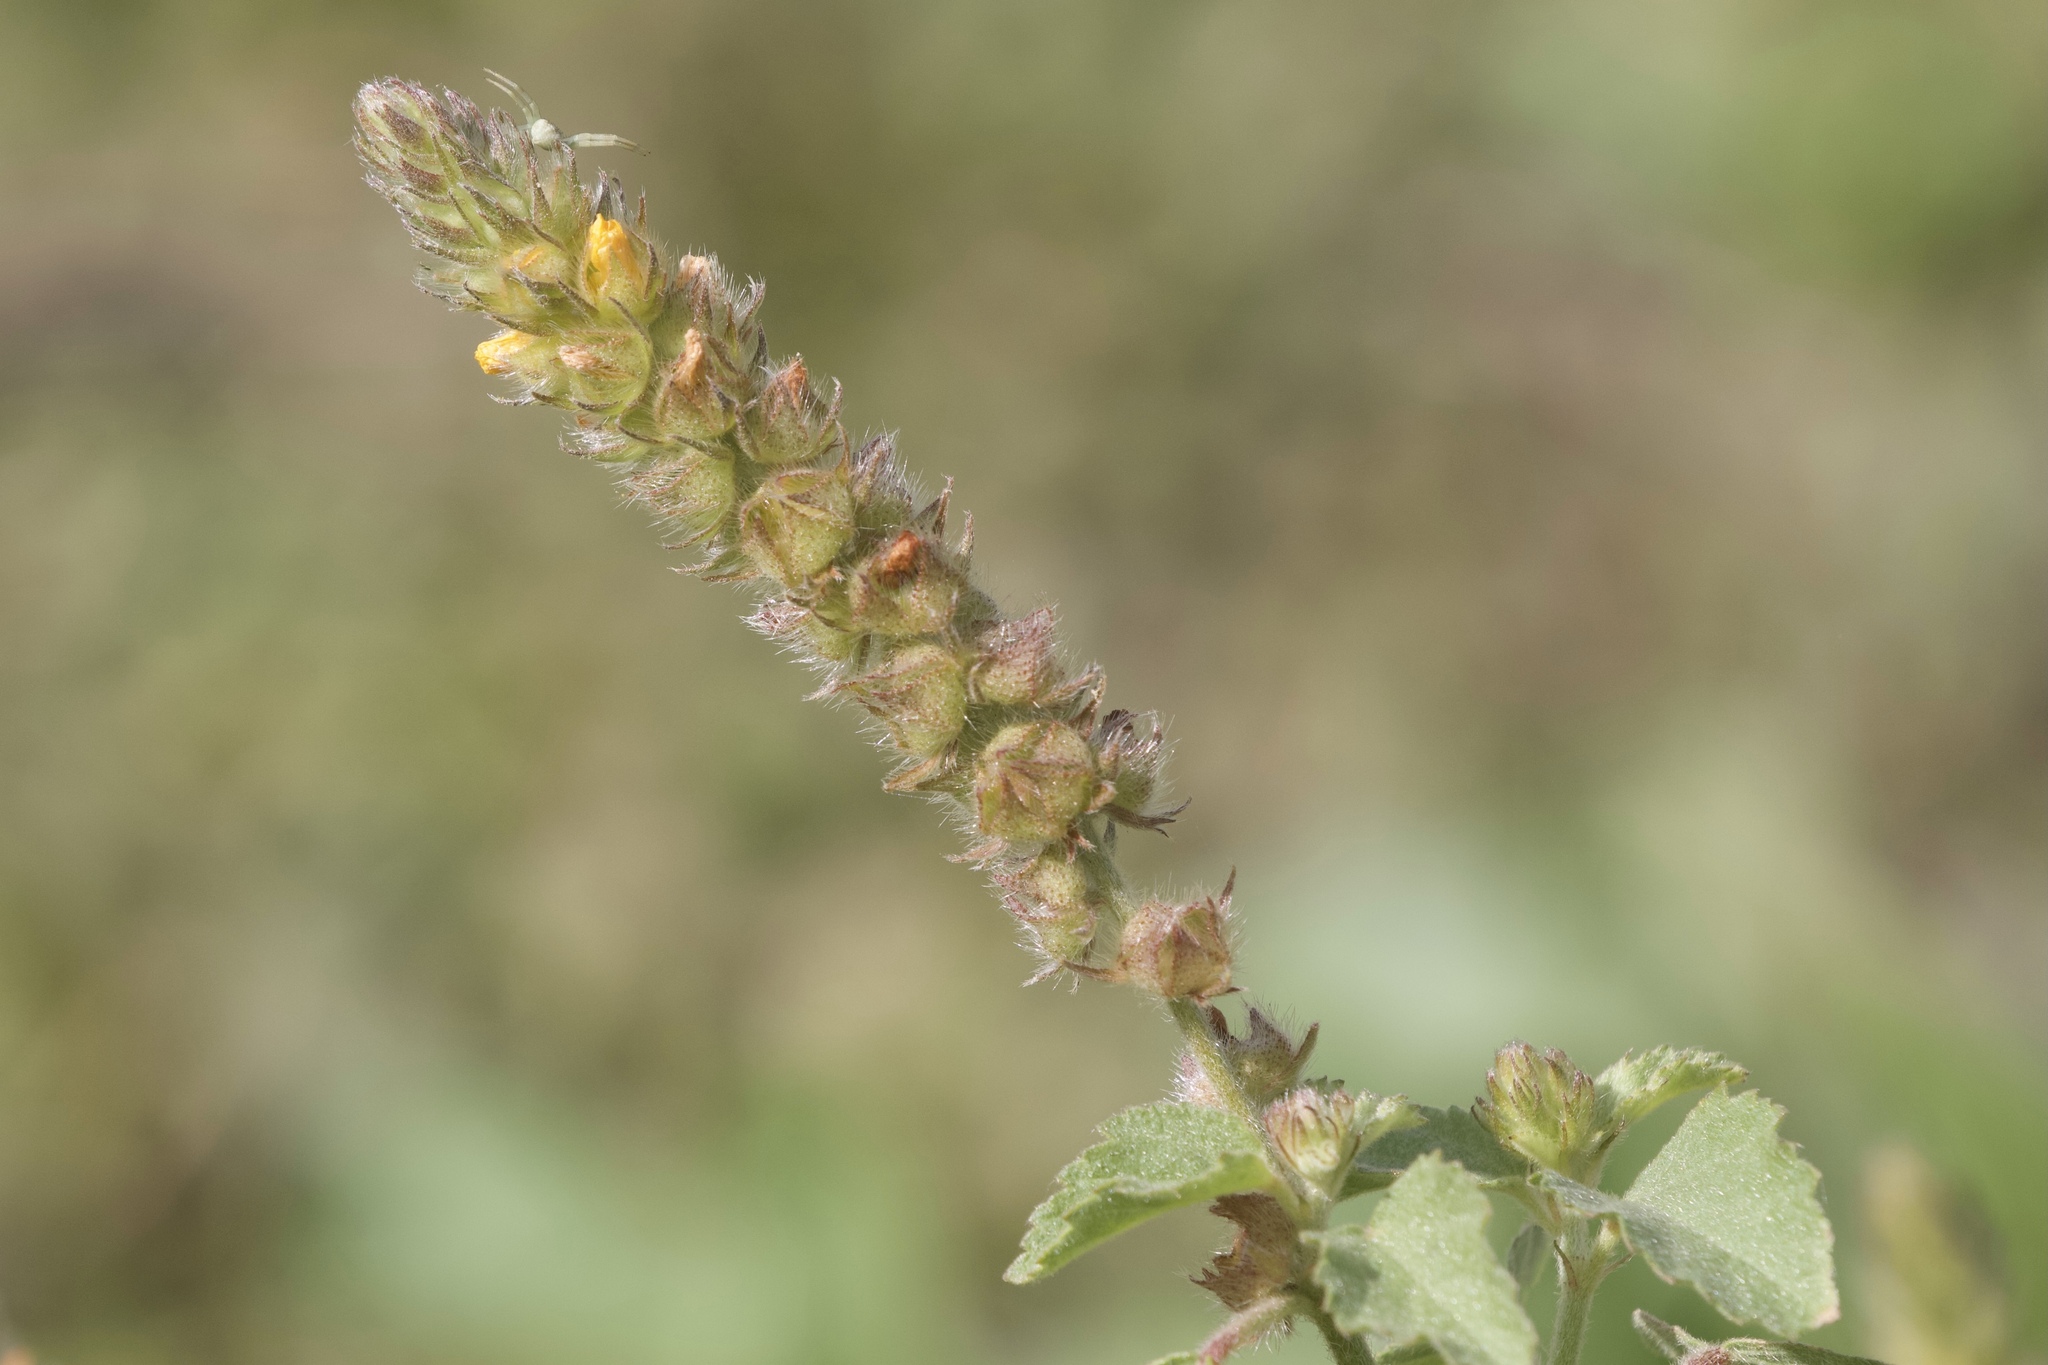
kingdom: Plantae
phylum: Tracheophyta
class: Magnoliopsida
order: Malvales
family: Malvaceae
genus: Malvastrum
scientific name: Malvastrum americanum
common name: Spiked malvastrum
